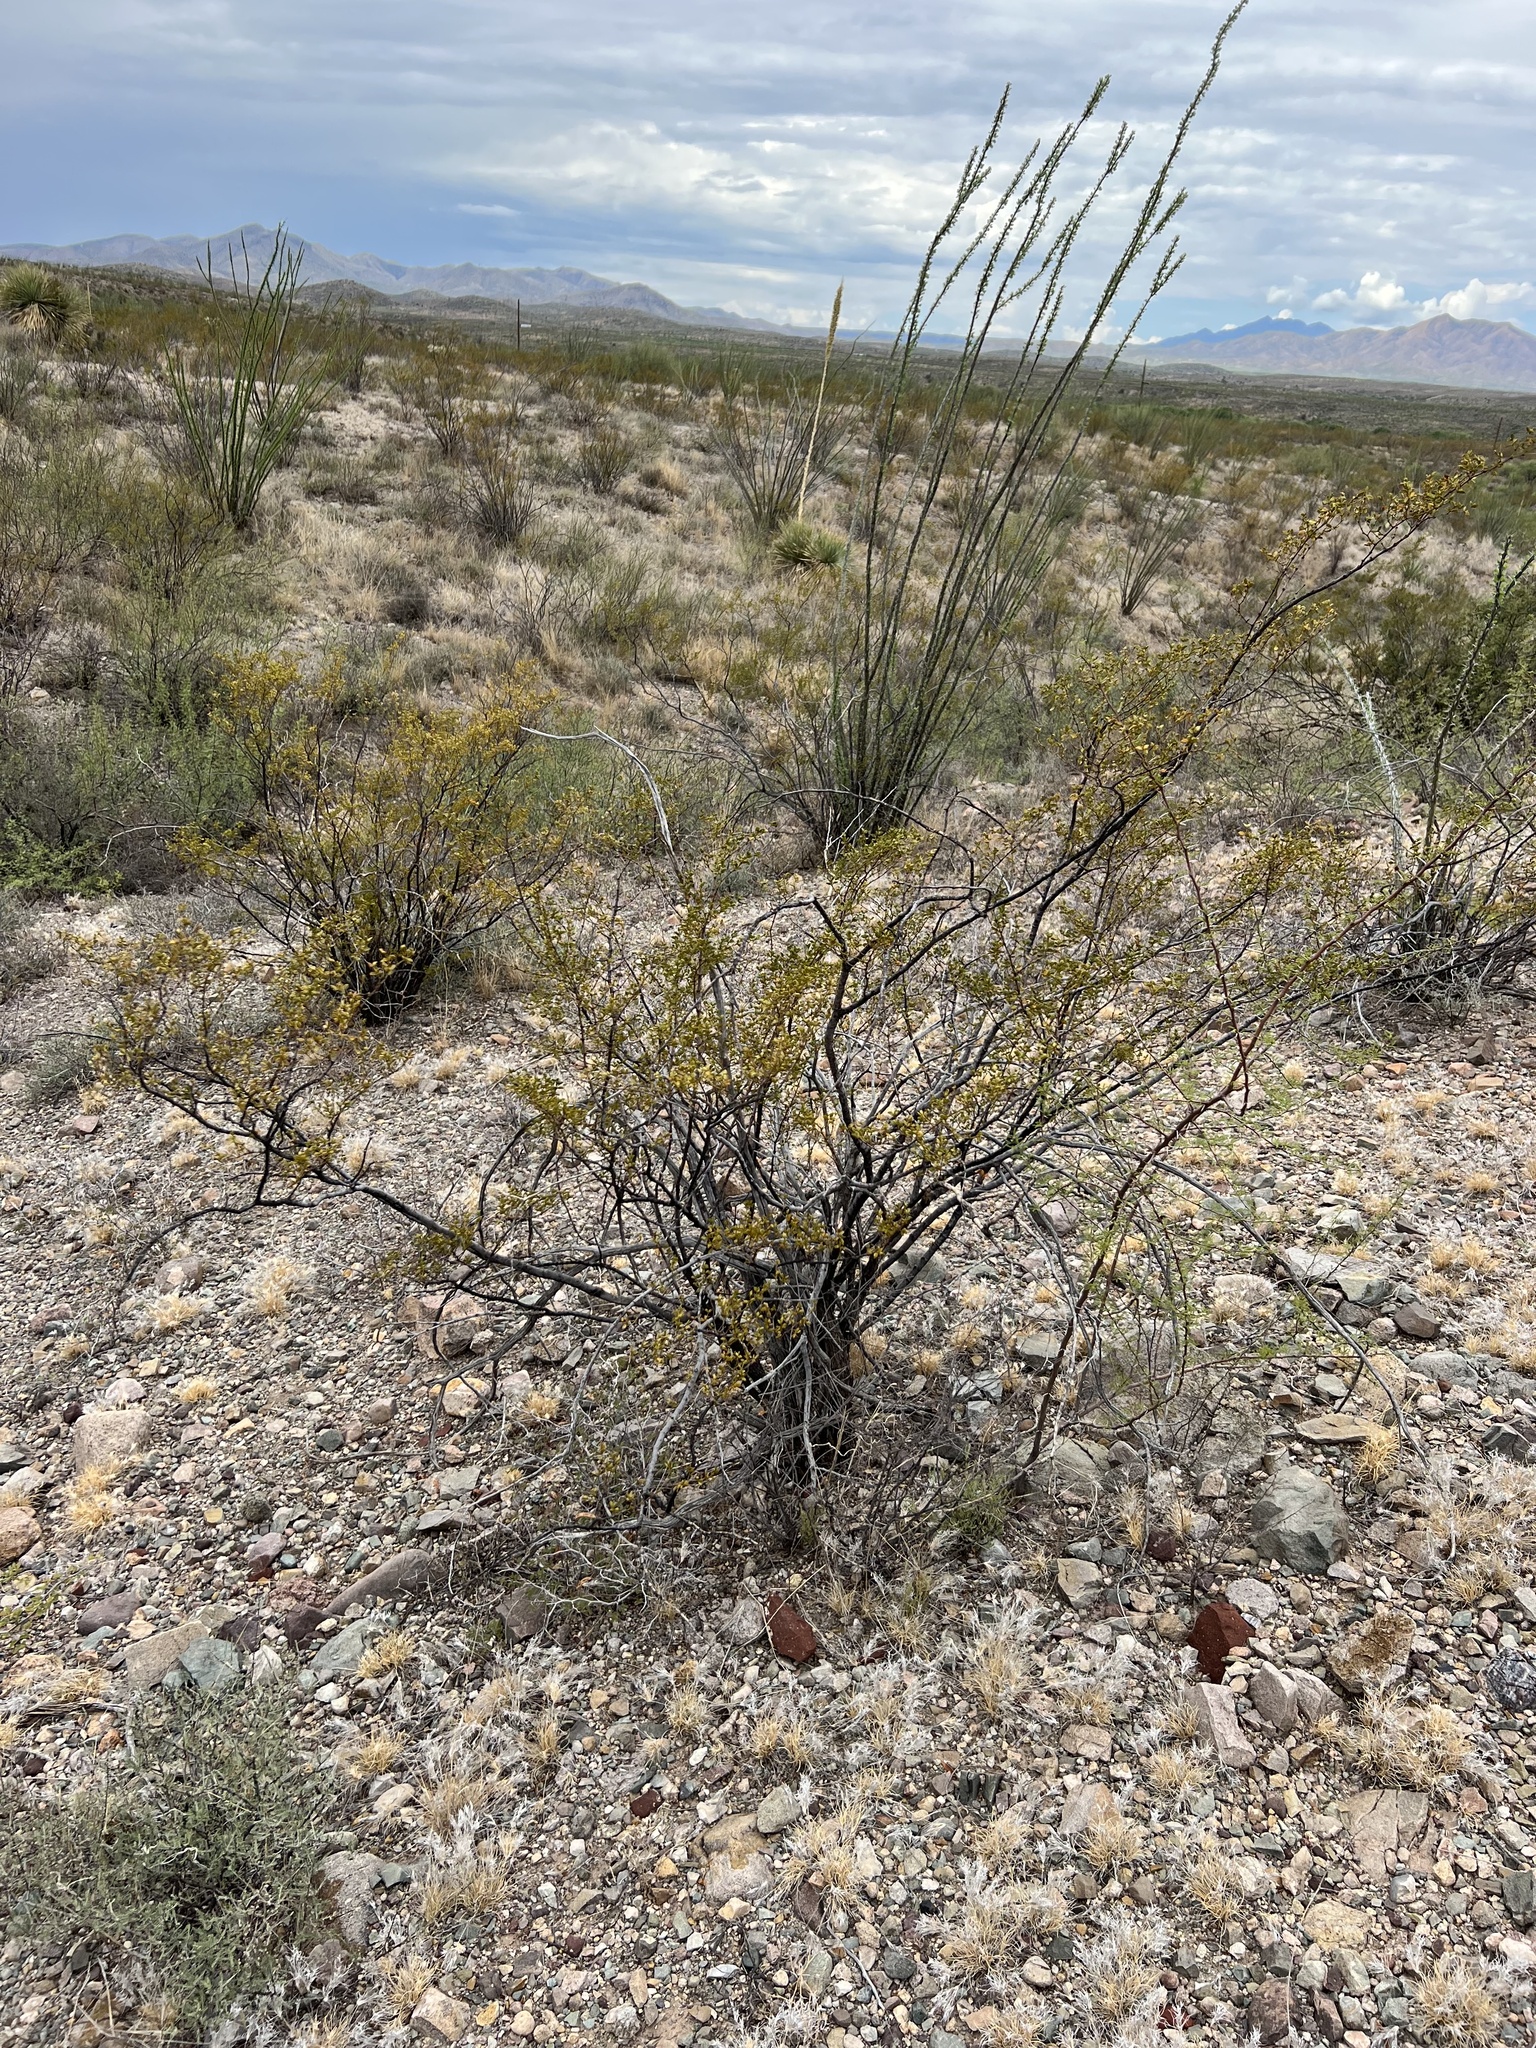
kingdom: Plantae
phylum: Tracheophyta
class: Magnoliopsida
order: Zygophyllales
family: Zygophyllaceae
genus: Larrea
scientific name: Larrea tridentata
